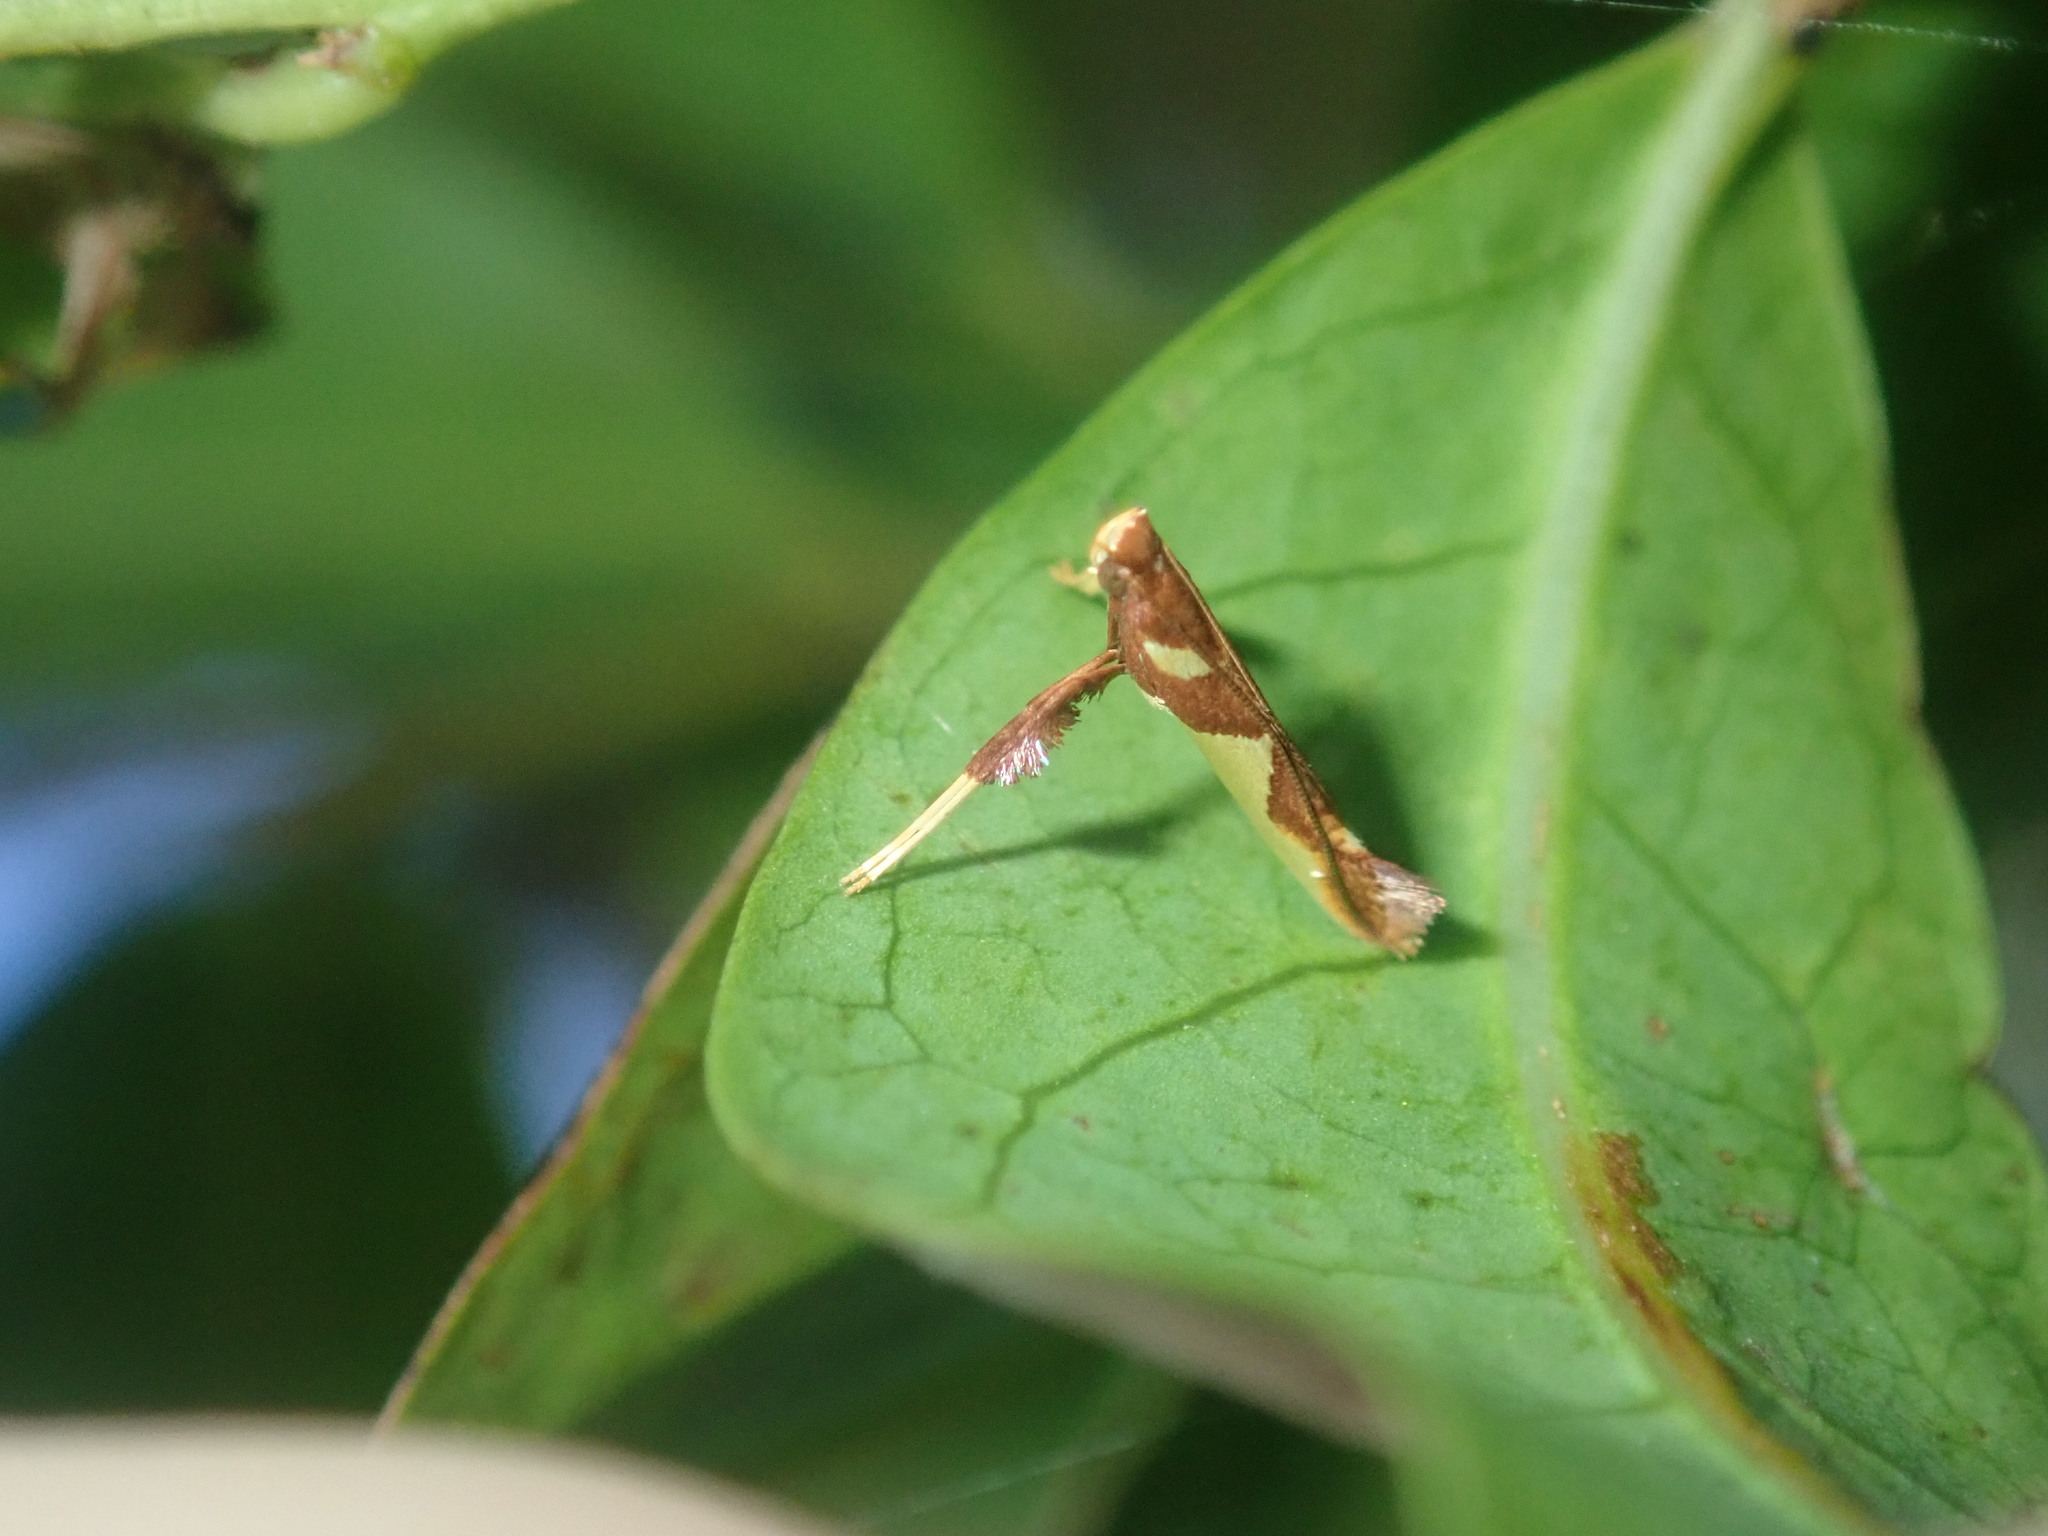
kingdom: Animalia
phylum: Arthropoda
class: Insecta
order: Lepidoptera
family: Gracillariidae
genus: Caloptilia
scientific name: Caloptilia xanthopharella
